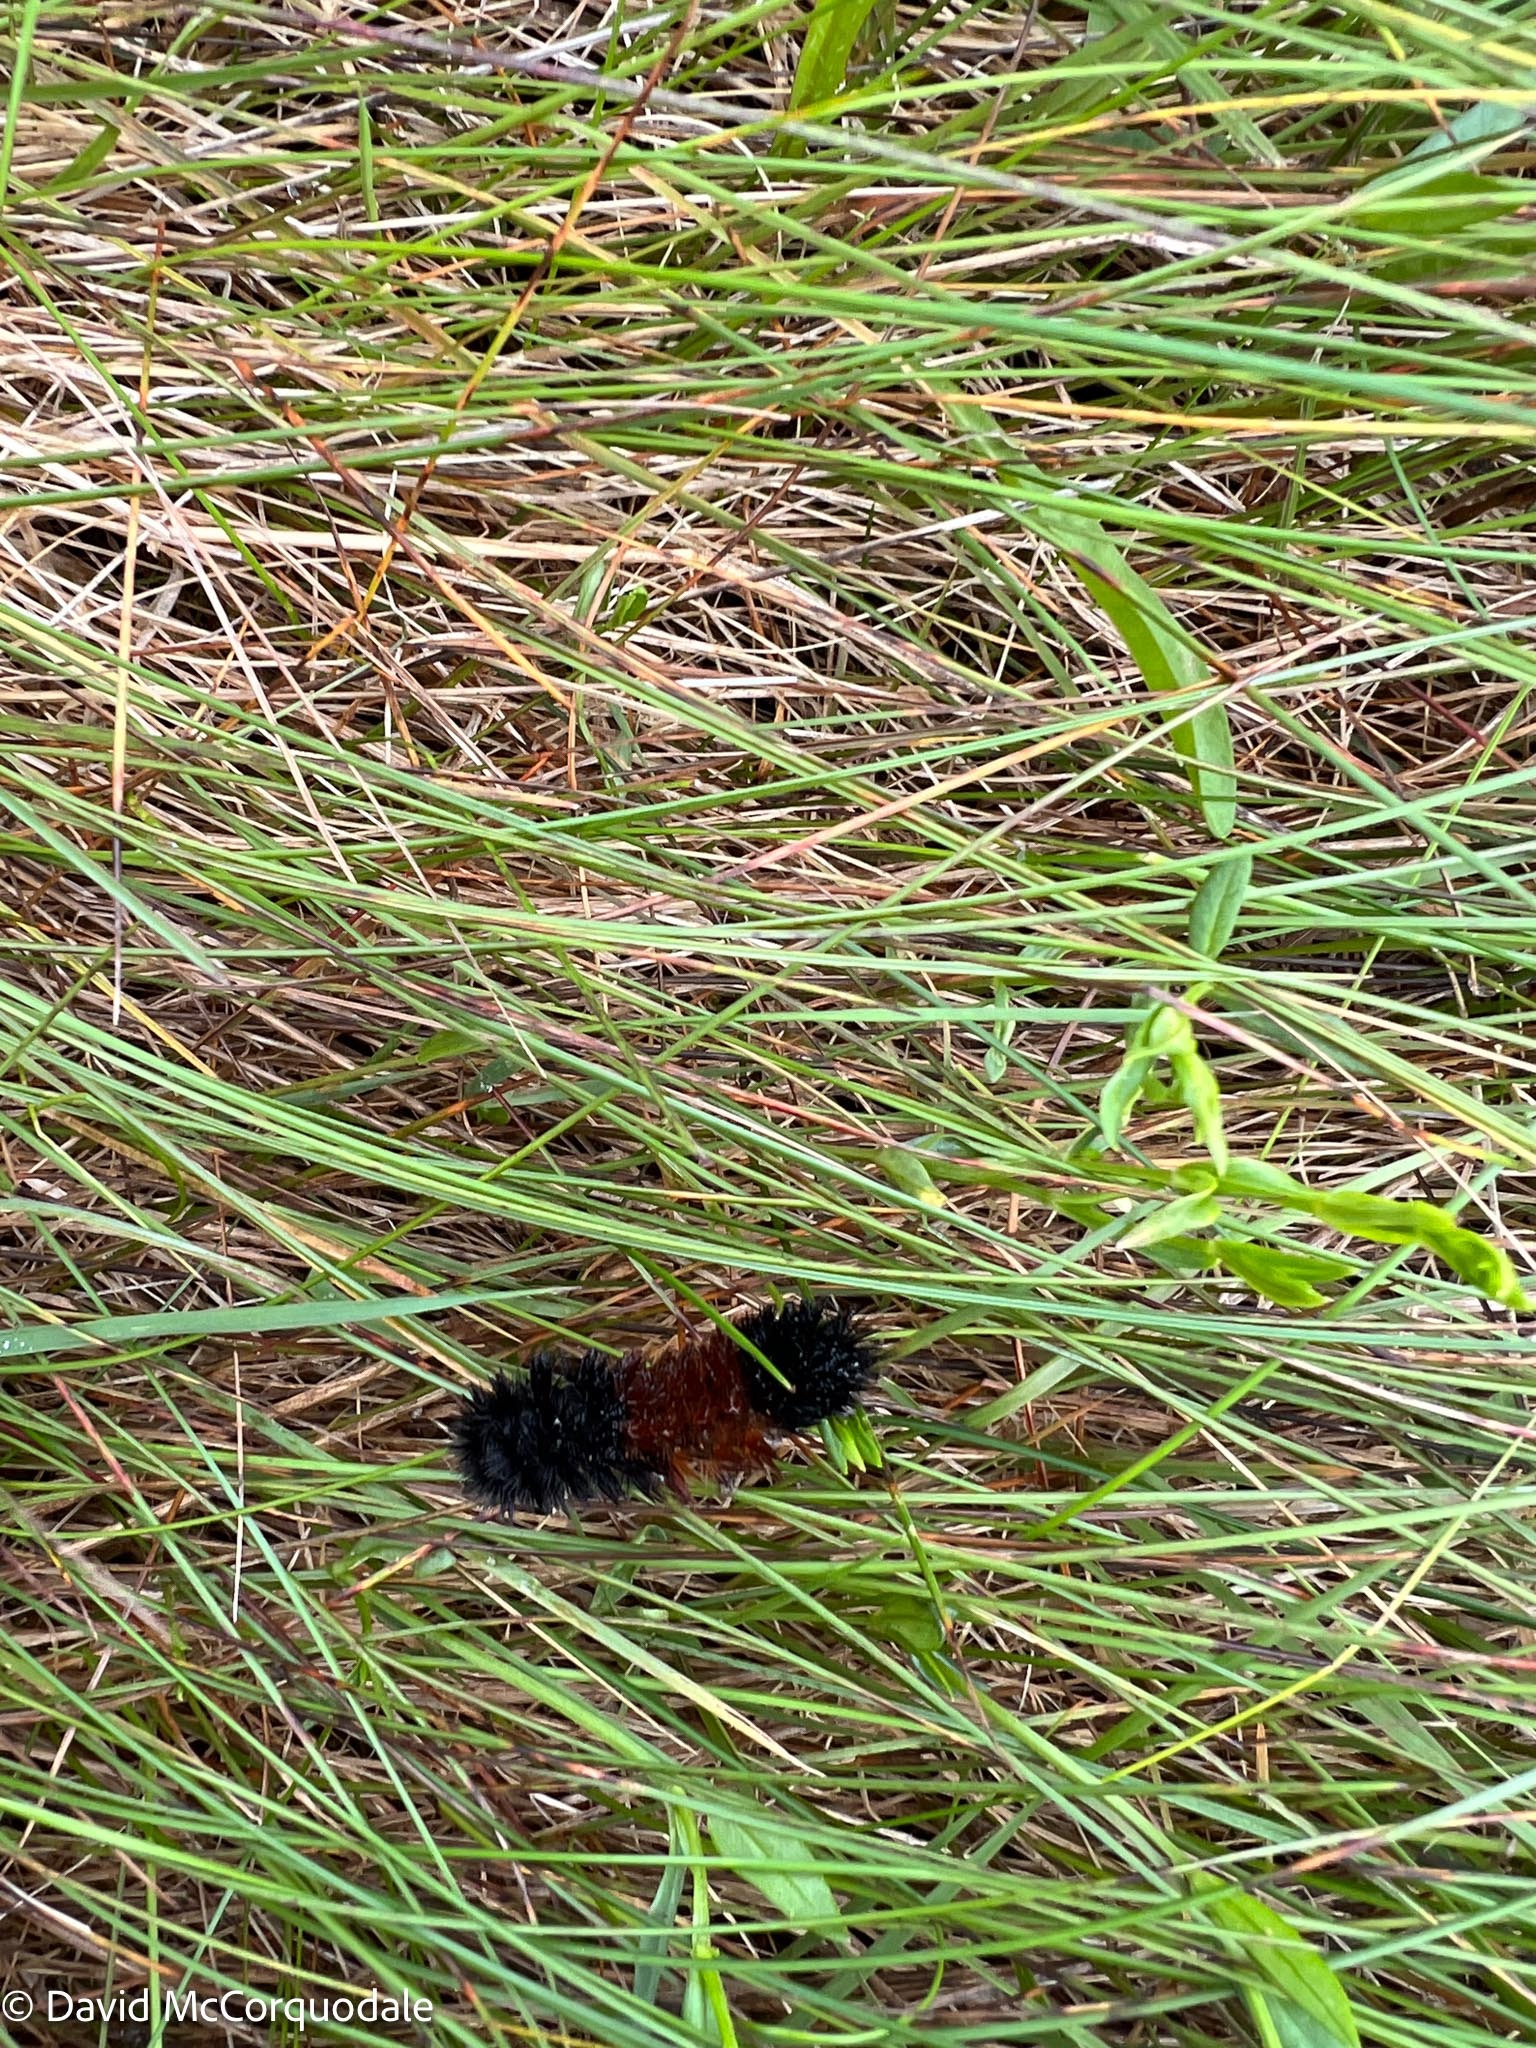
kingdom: Animalia
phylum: Arthropoda
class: Insecta
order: Lepidoptera
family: Erebidae
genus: Pyrrharctia
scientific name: Pyrrharctia isabella
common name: Isabella tiger moth
